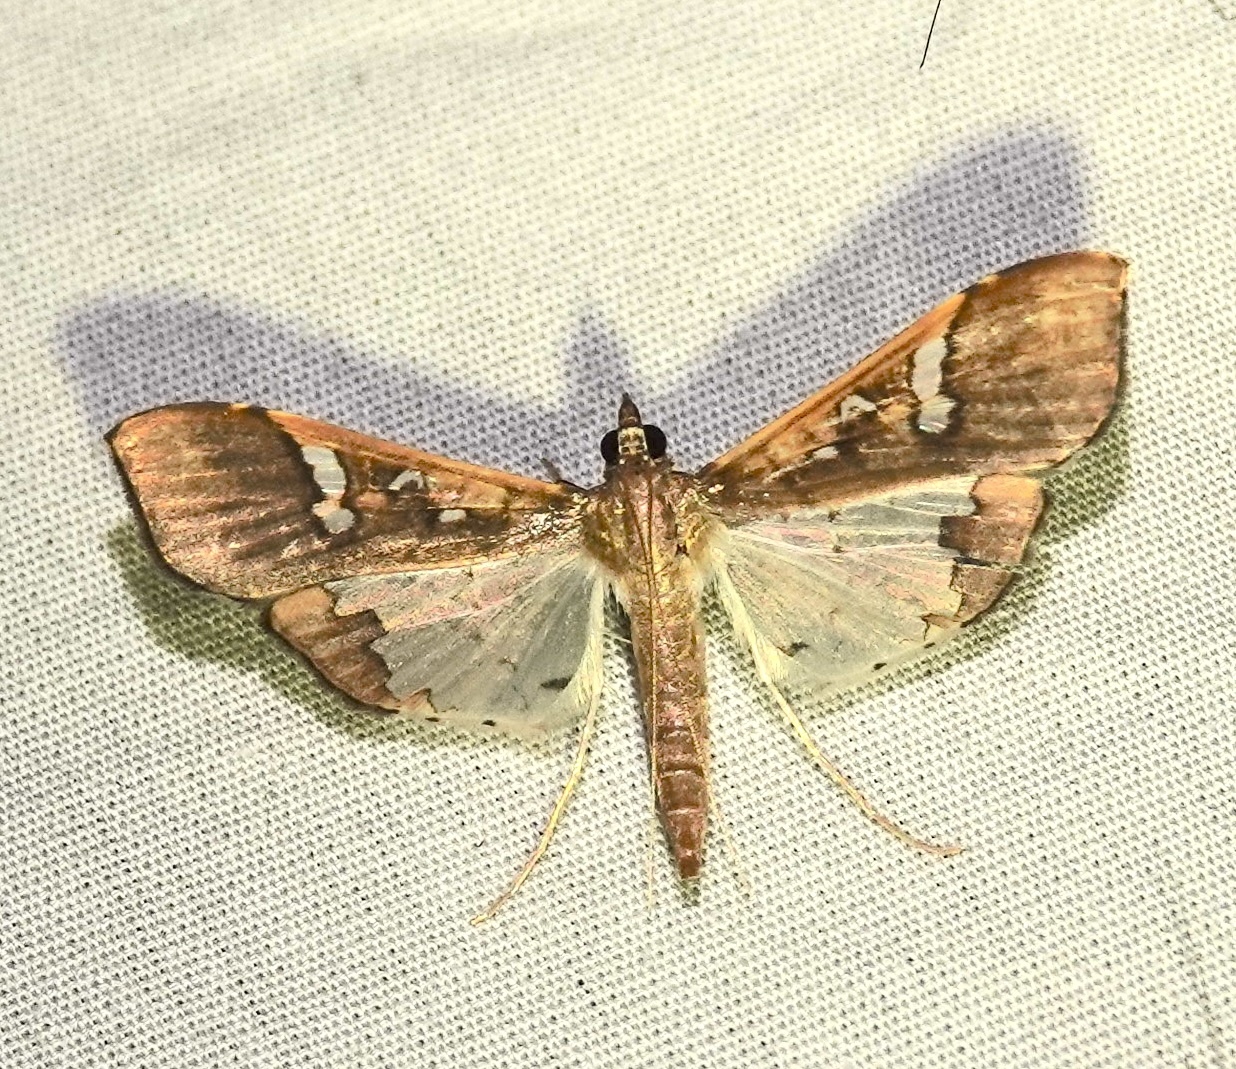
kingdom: Animalia
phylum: Arthropoda
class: Insecta
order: Lepidoptera
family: Crambidae
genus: Maruca
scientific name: Maruca vitrata
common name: Maruca pod borer
